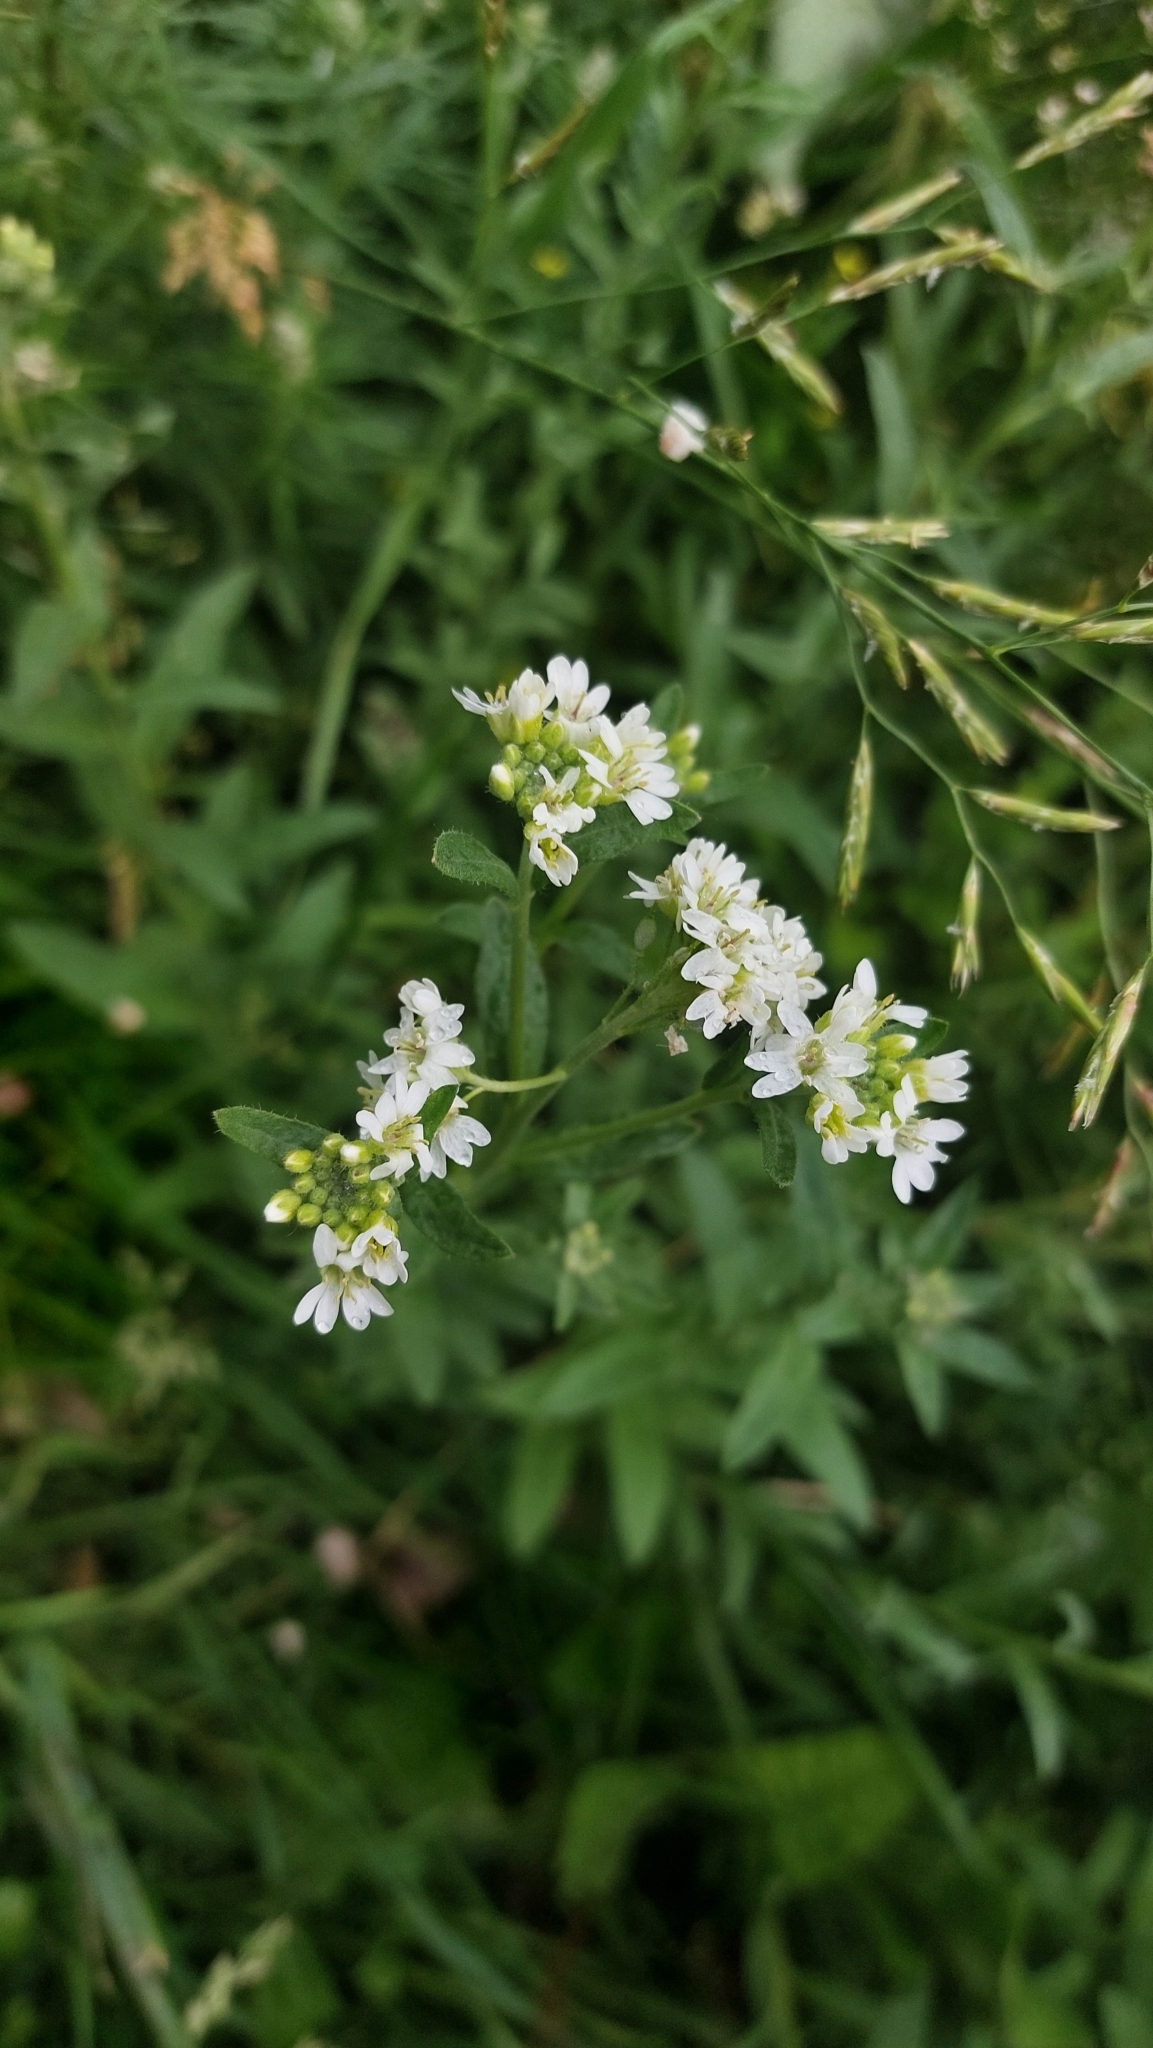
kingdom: Plantae
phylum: Tracheophyta
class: Magnoliopsida
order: Brassicales
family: Brassicaceae
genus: Berteroa
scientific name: Berteroa incana
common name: Hoary alison
